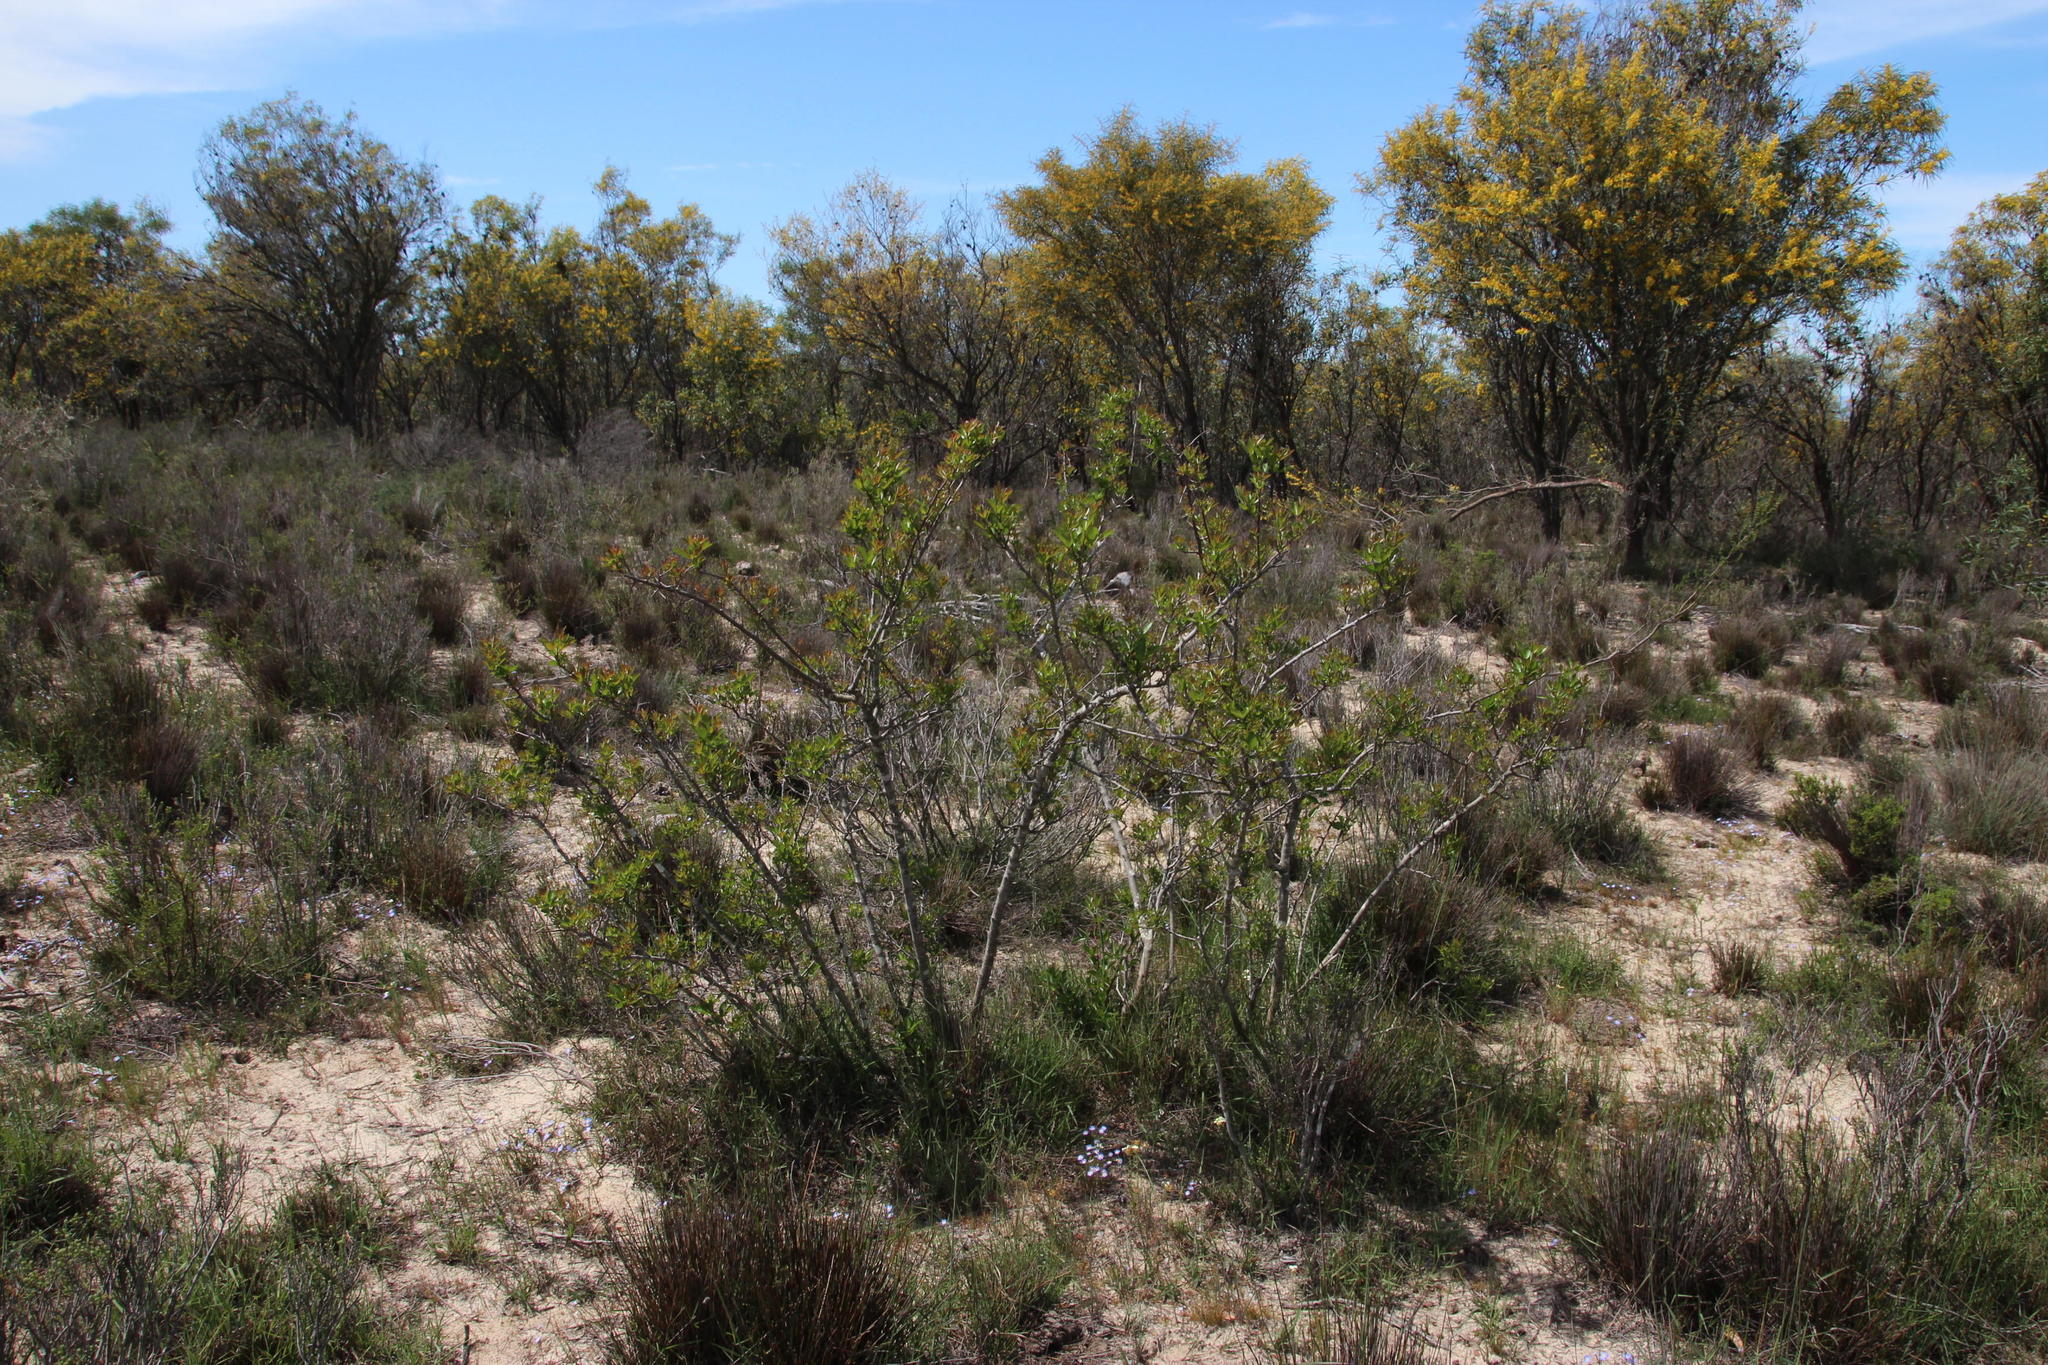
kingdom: Plantae
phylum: Tracheophyta
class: Magnoliopsida
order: Sapindales
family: Anacardiaceae
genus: Searsia
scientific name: Searsia laevigata
